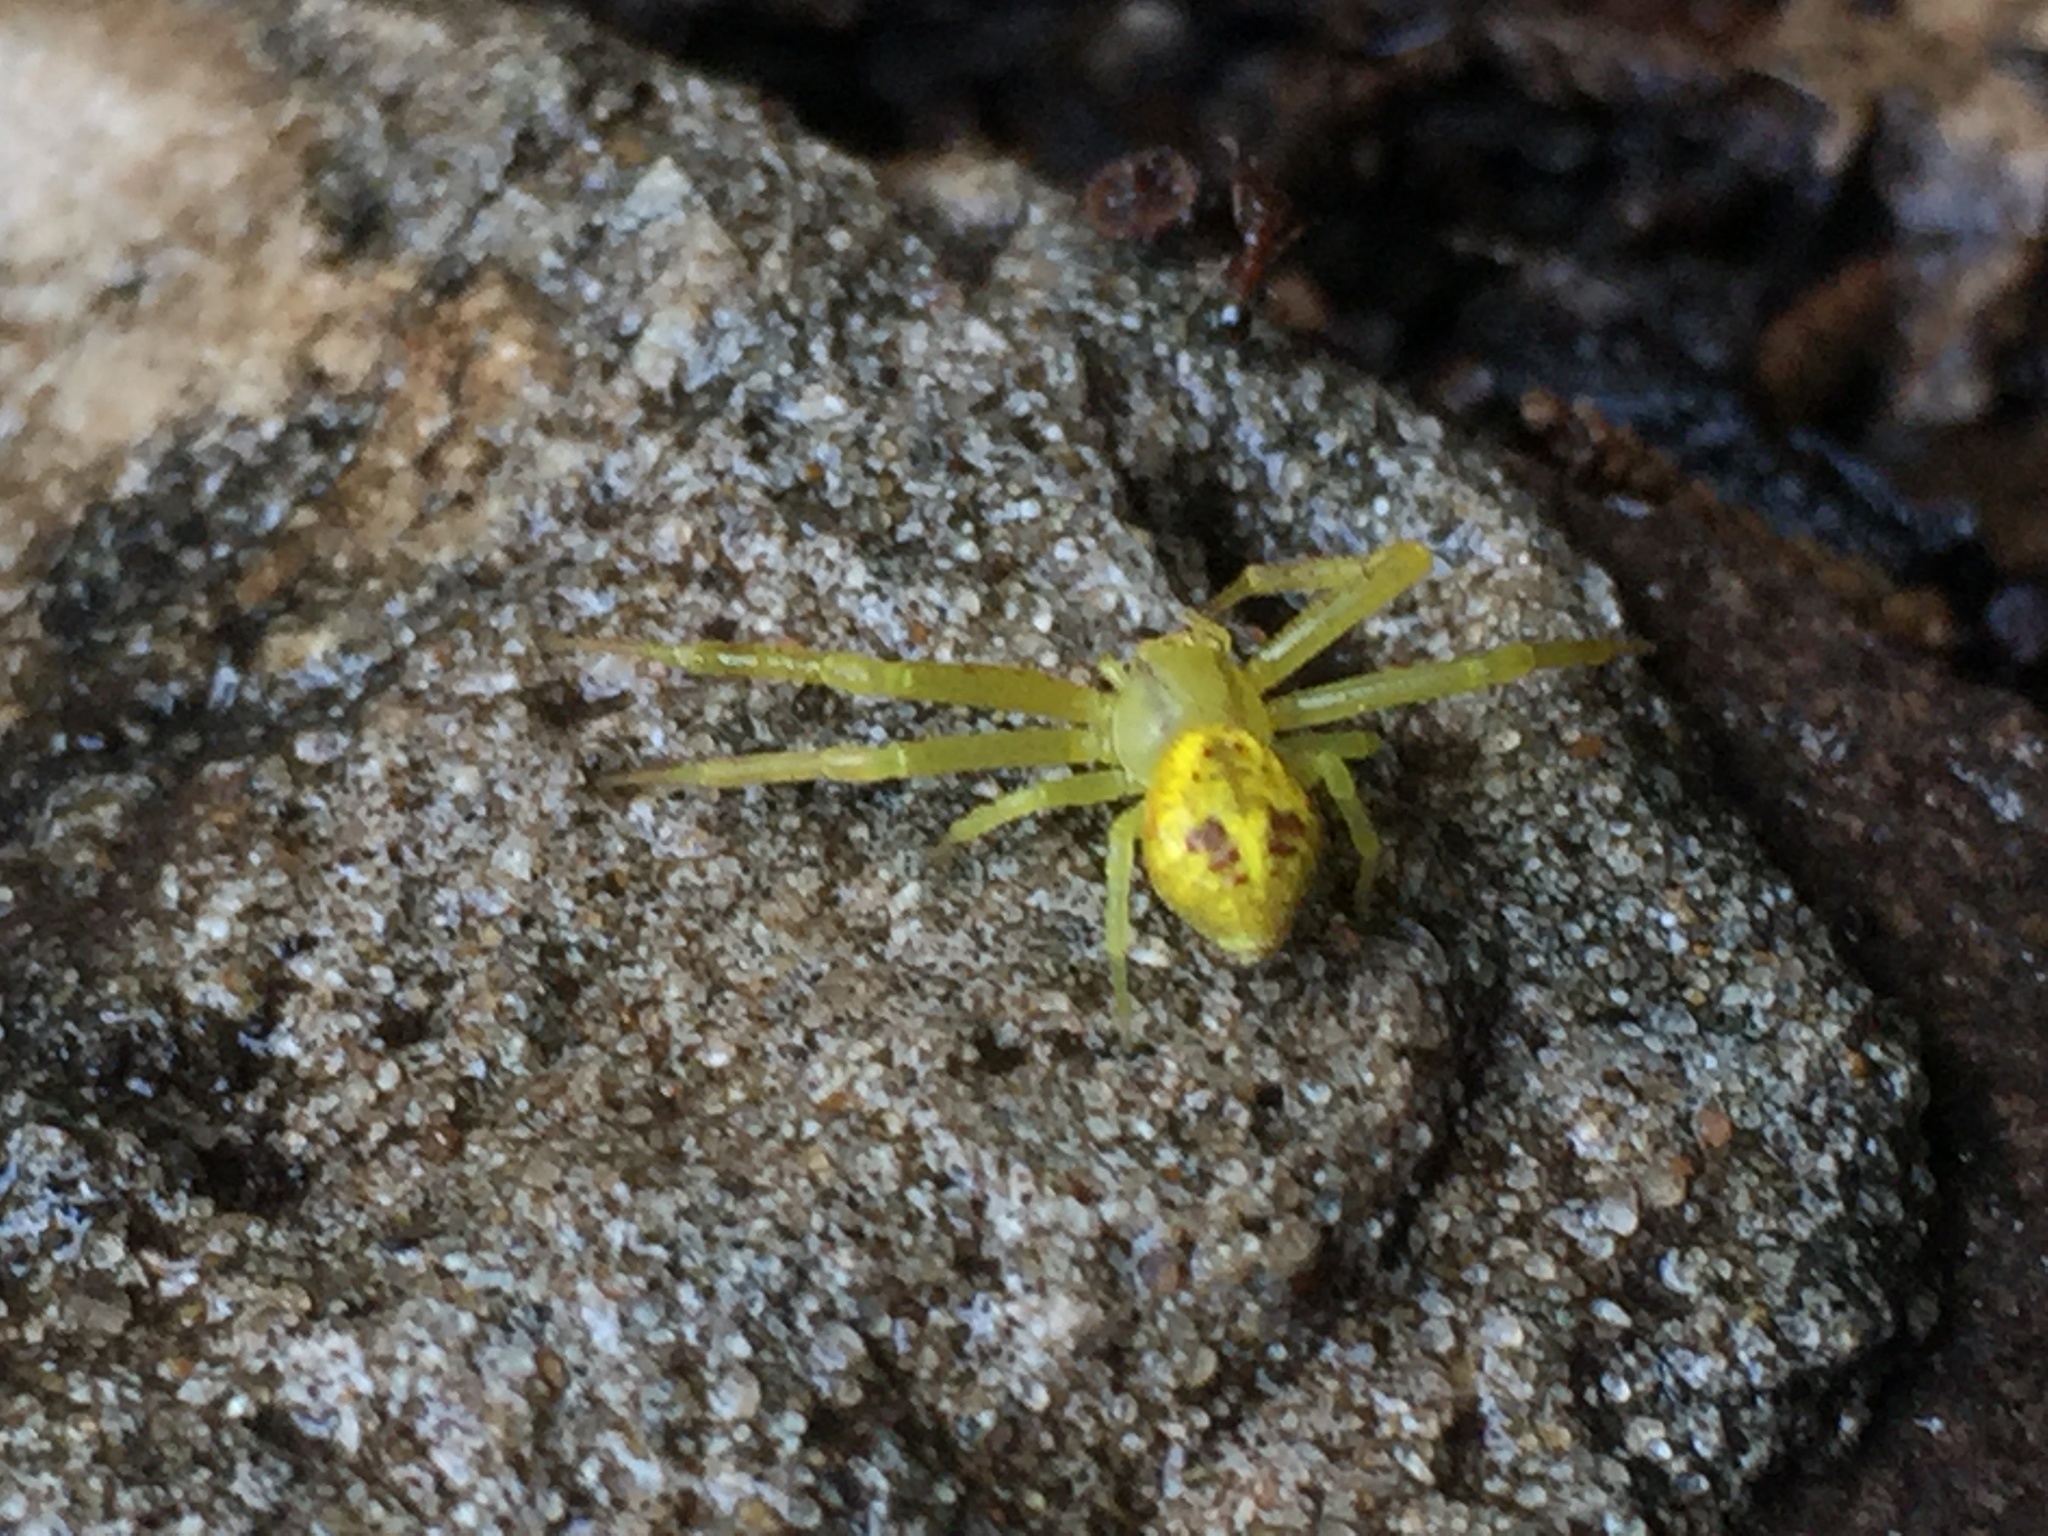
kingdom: Animalia
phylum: Arthropoda
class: Arachnida
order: Araneae
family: Thomisidae
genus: Misumenops
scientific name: Misumenops
